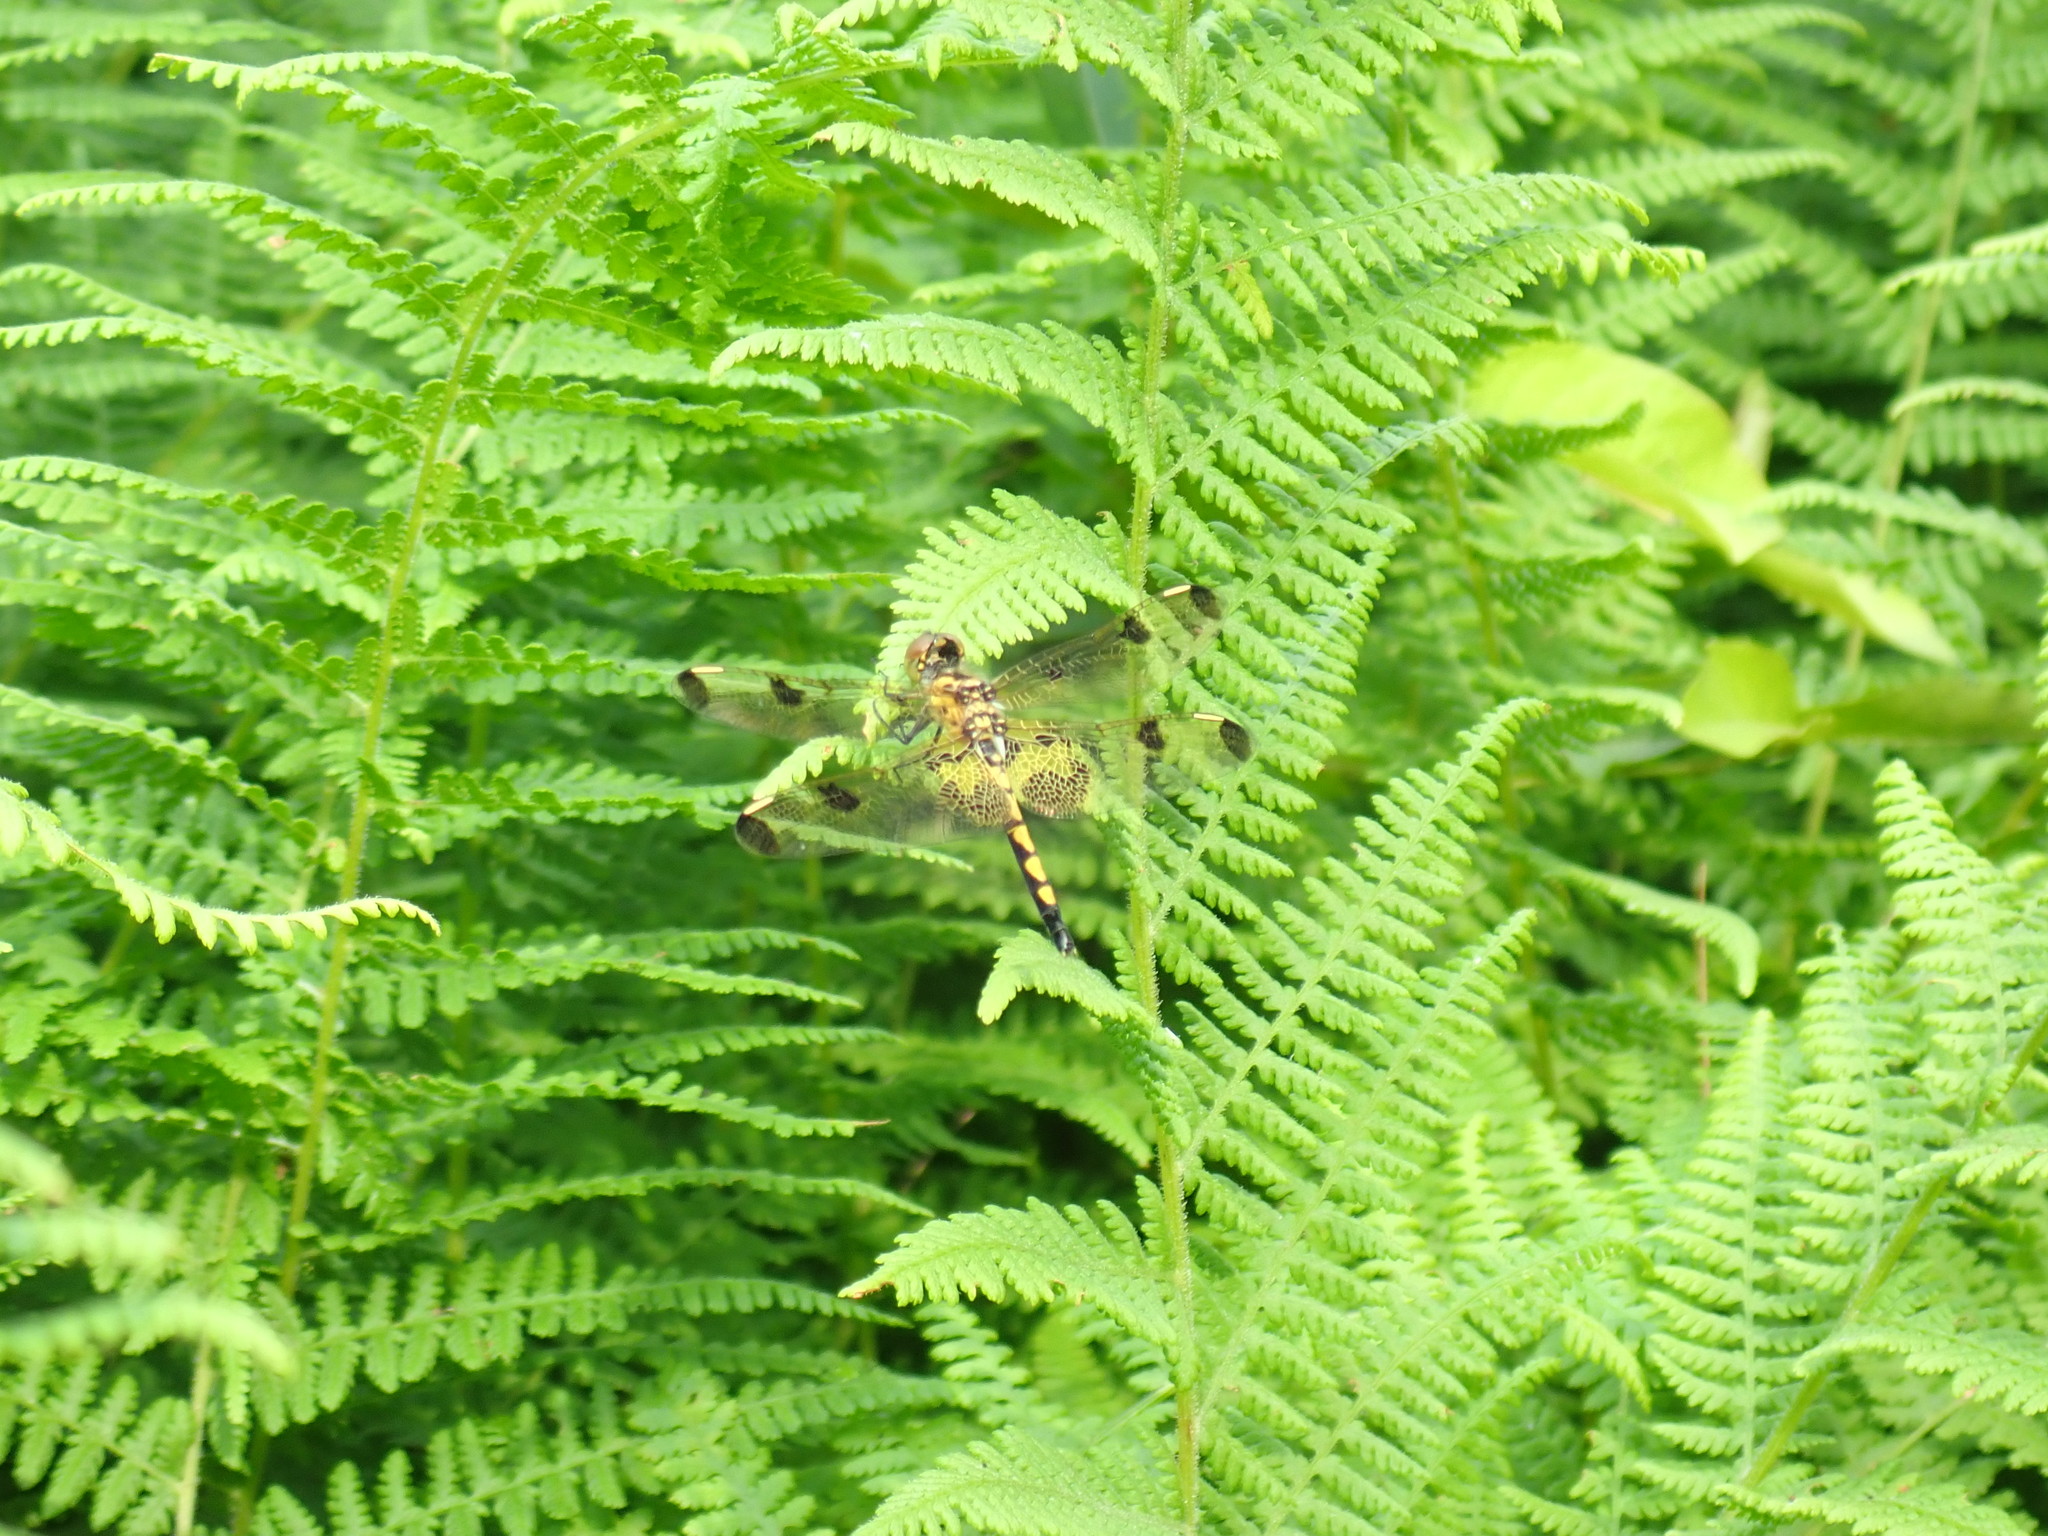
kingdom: Animalia
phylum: Arthropoda
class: Insecta
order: Odonata
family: Libellulidae
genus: Celithemis
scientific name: Celithemis elisa
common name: Calico pennant
